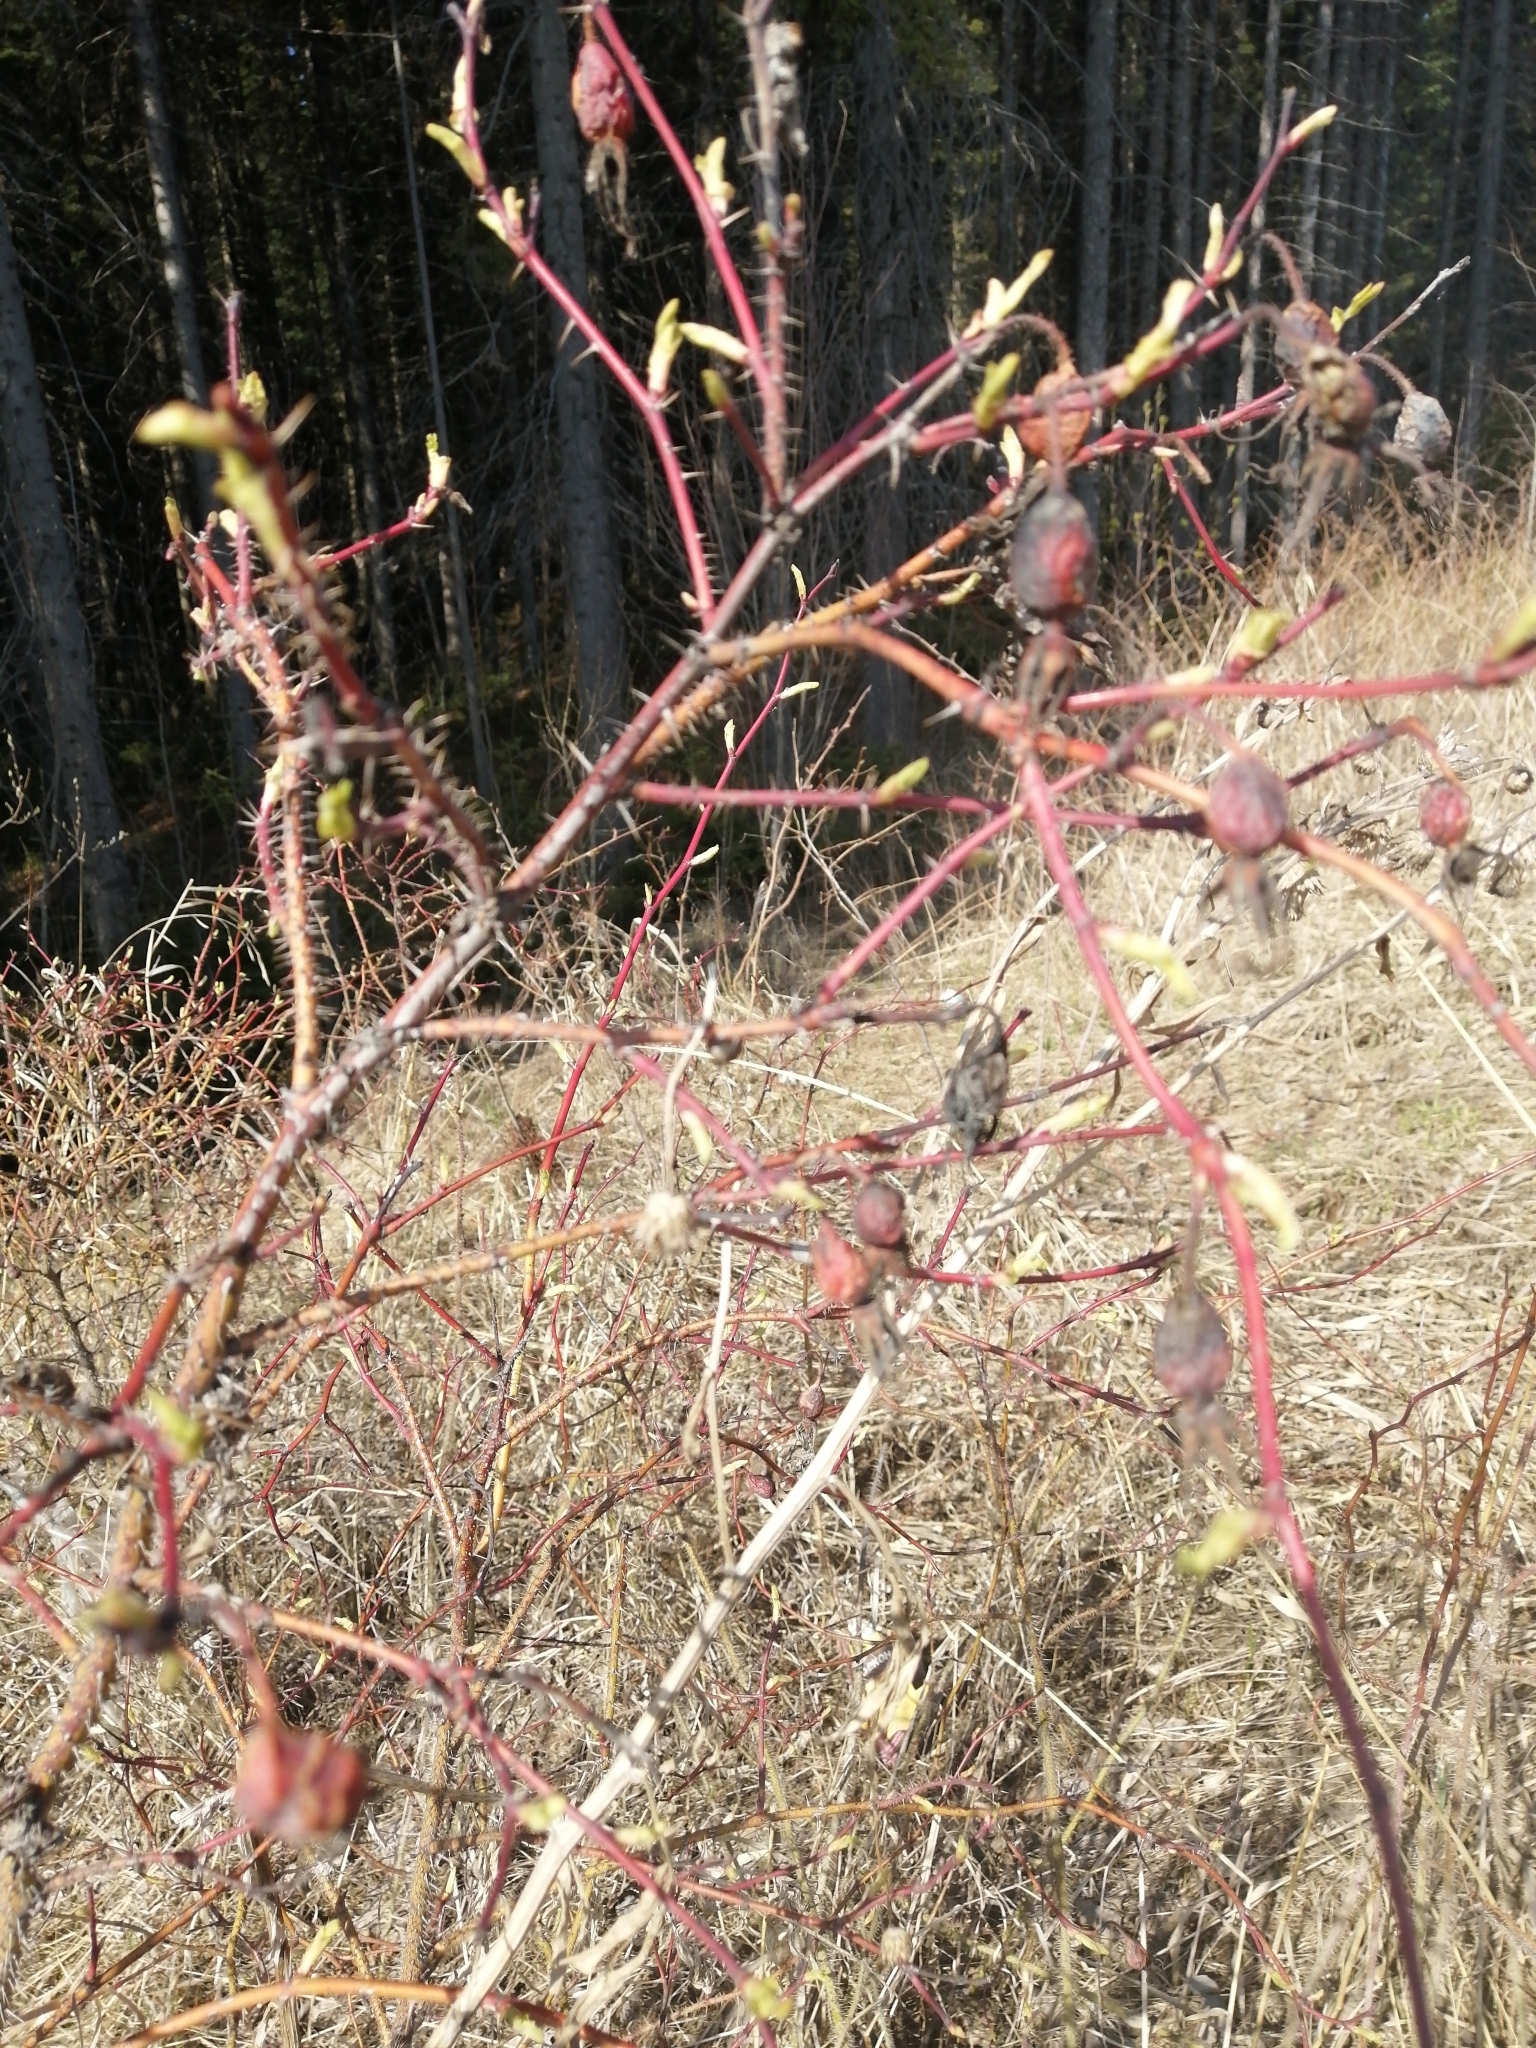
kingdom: Plantae
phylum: Tracheophyta
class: Magnoliopsida
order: Rosales
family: Rosaceae
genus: Rosa
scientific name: Rosa acicularis
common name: Prickly rose
